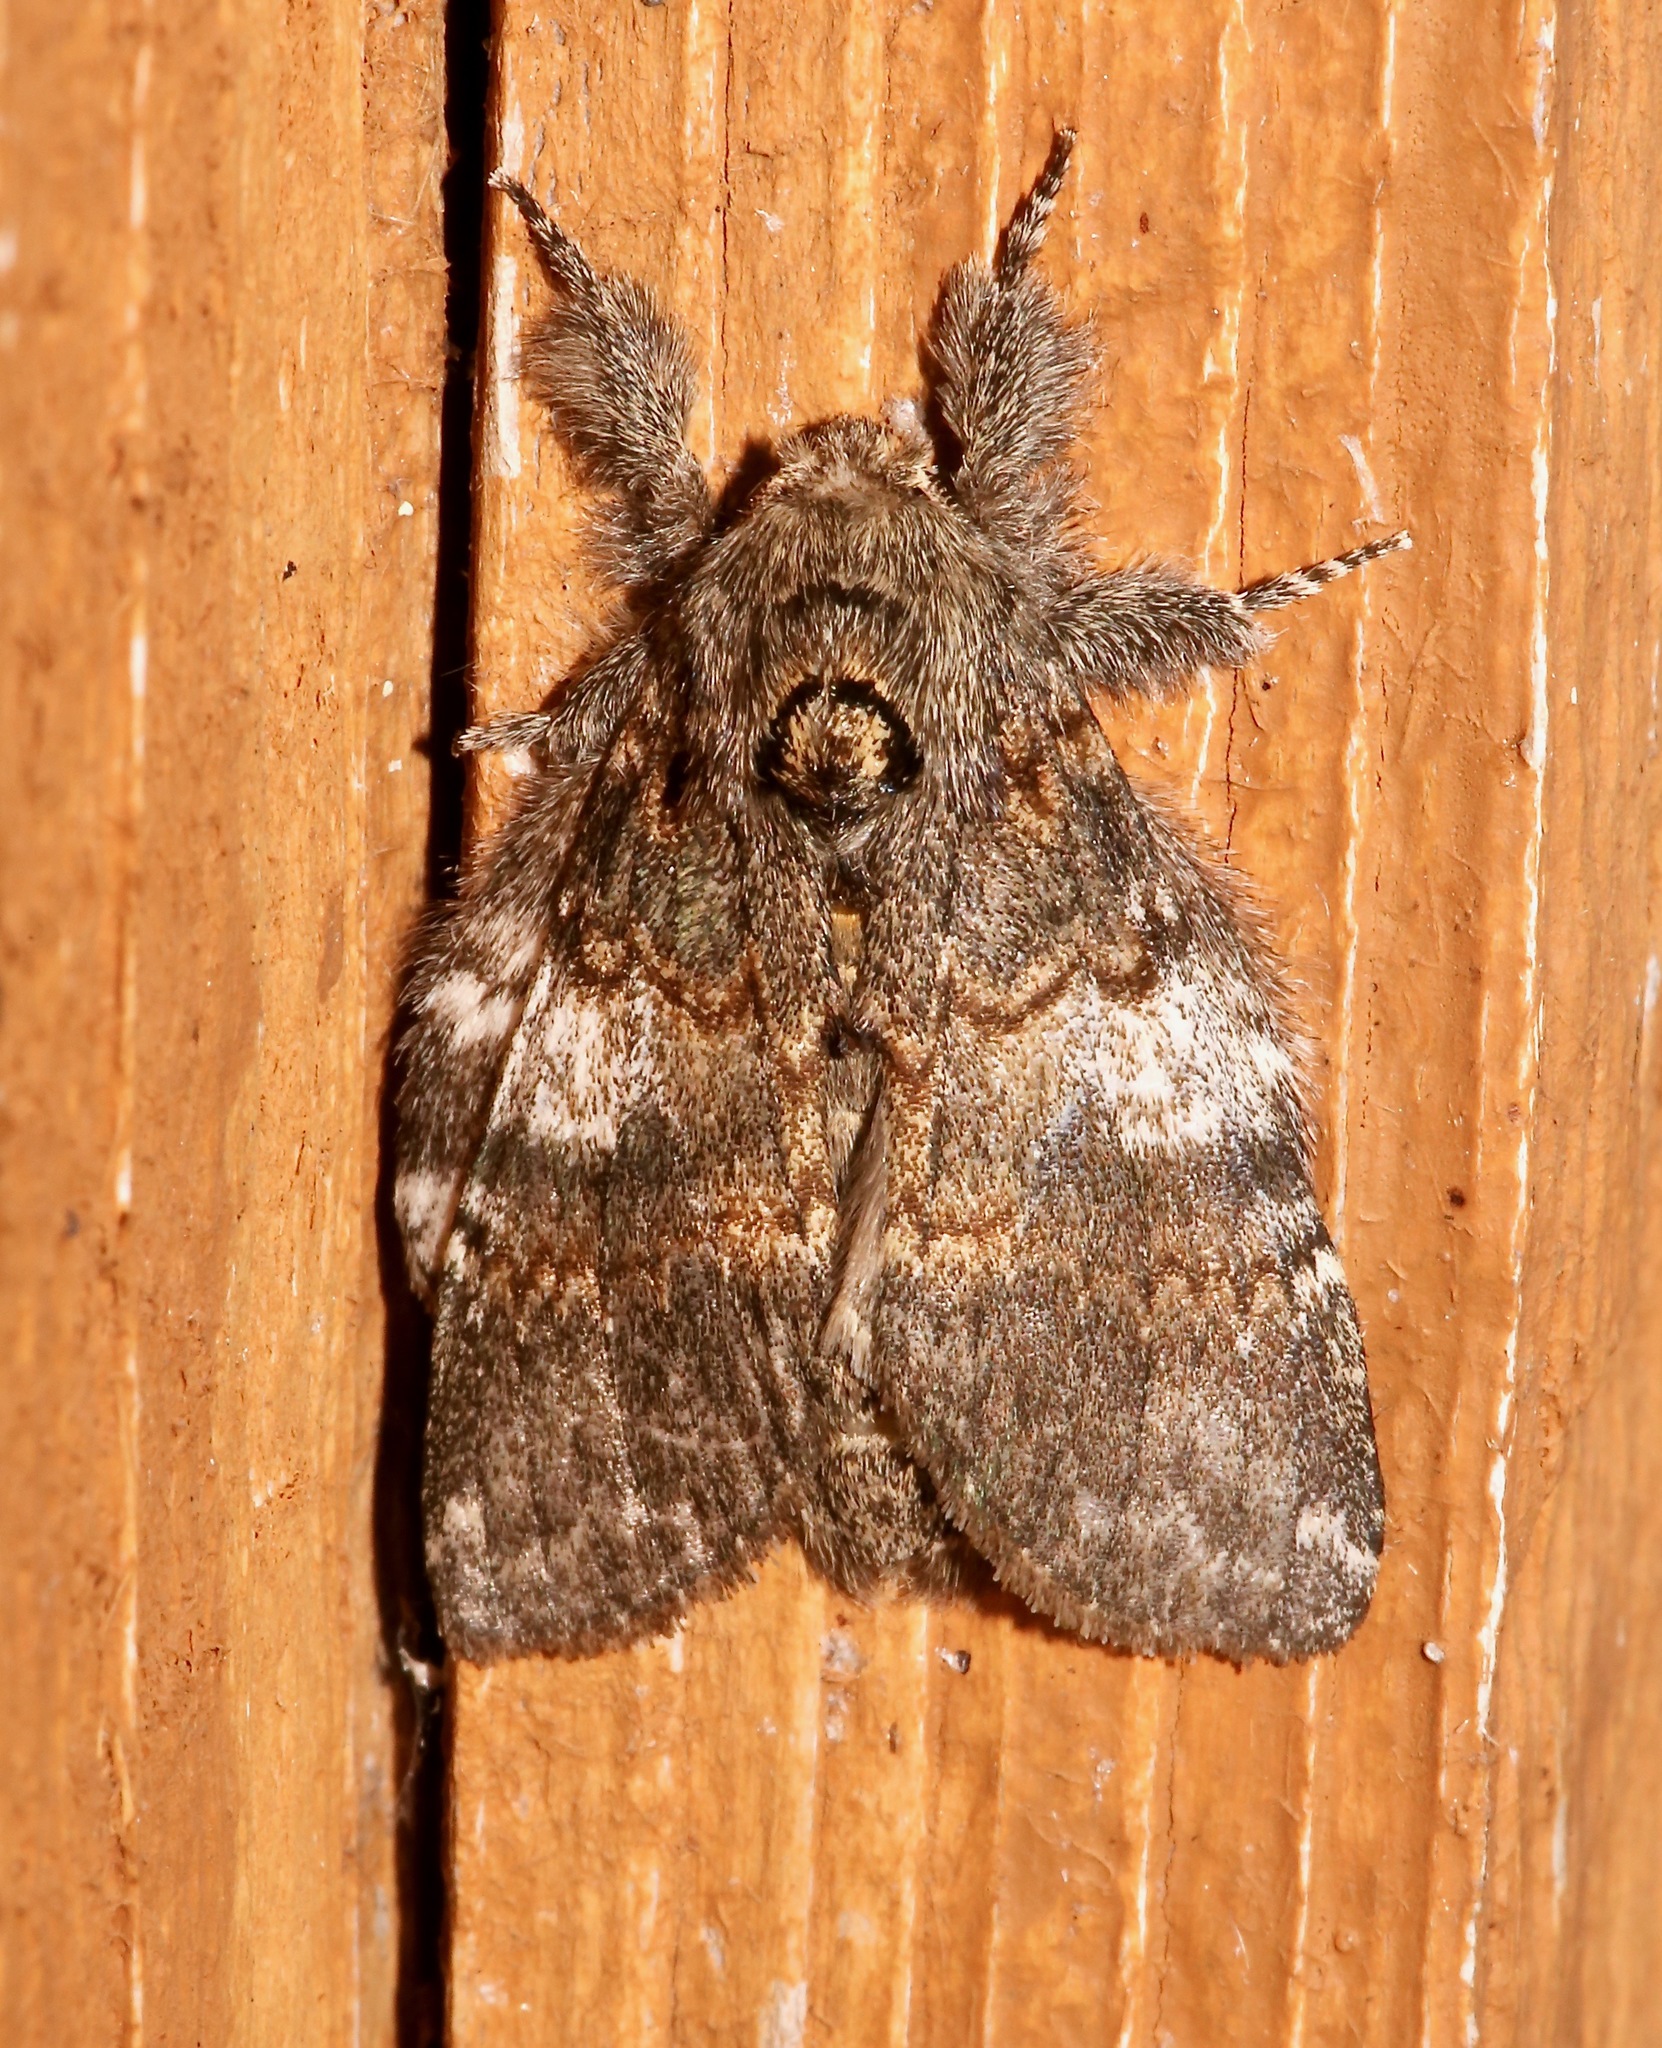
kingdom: Animalia
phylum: Arthropoda
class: Insecta
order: Lepidoptera
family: Notodontidae
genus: Peridea
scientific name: Peridea angulosa
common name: Angulose prominent
